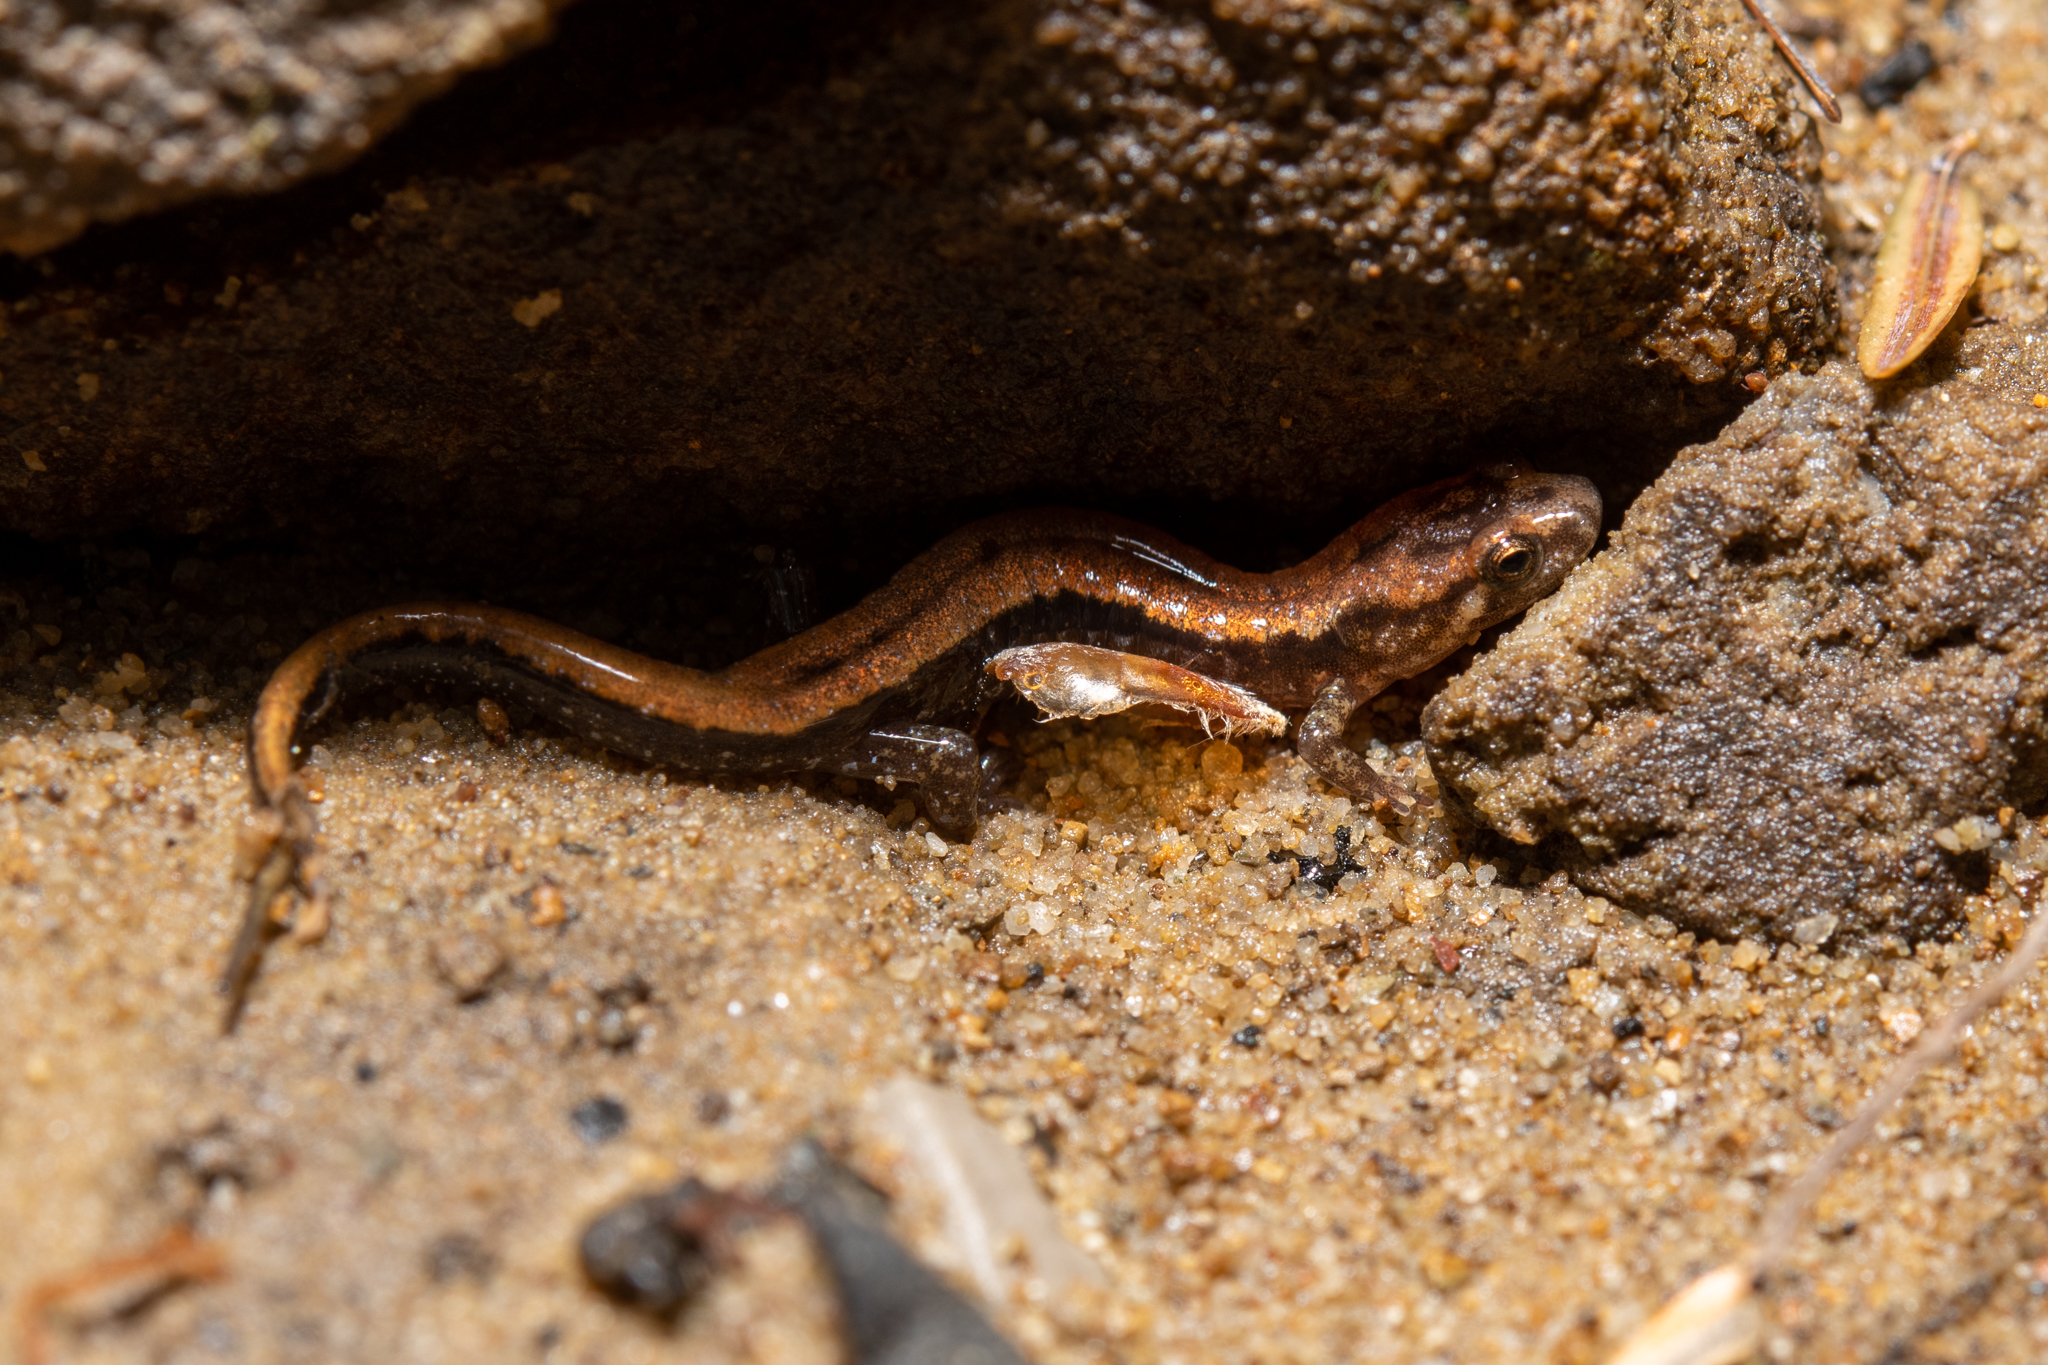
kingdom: Animalia
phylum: Chordata
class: Amphibia
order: Caudata
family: Plethodontidae
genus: Desmognathus
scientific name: Desmognathus ochrophaeus
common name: Allegheny mountain dusky salamander
